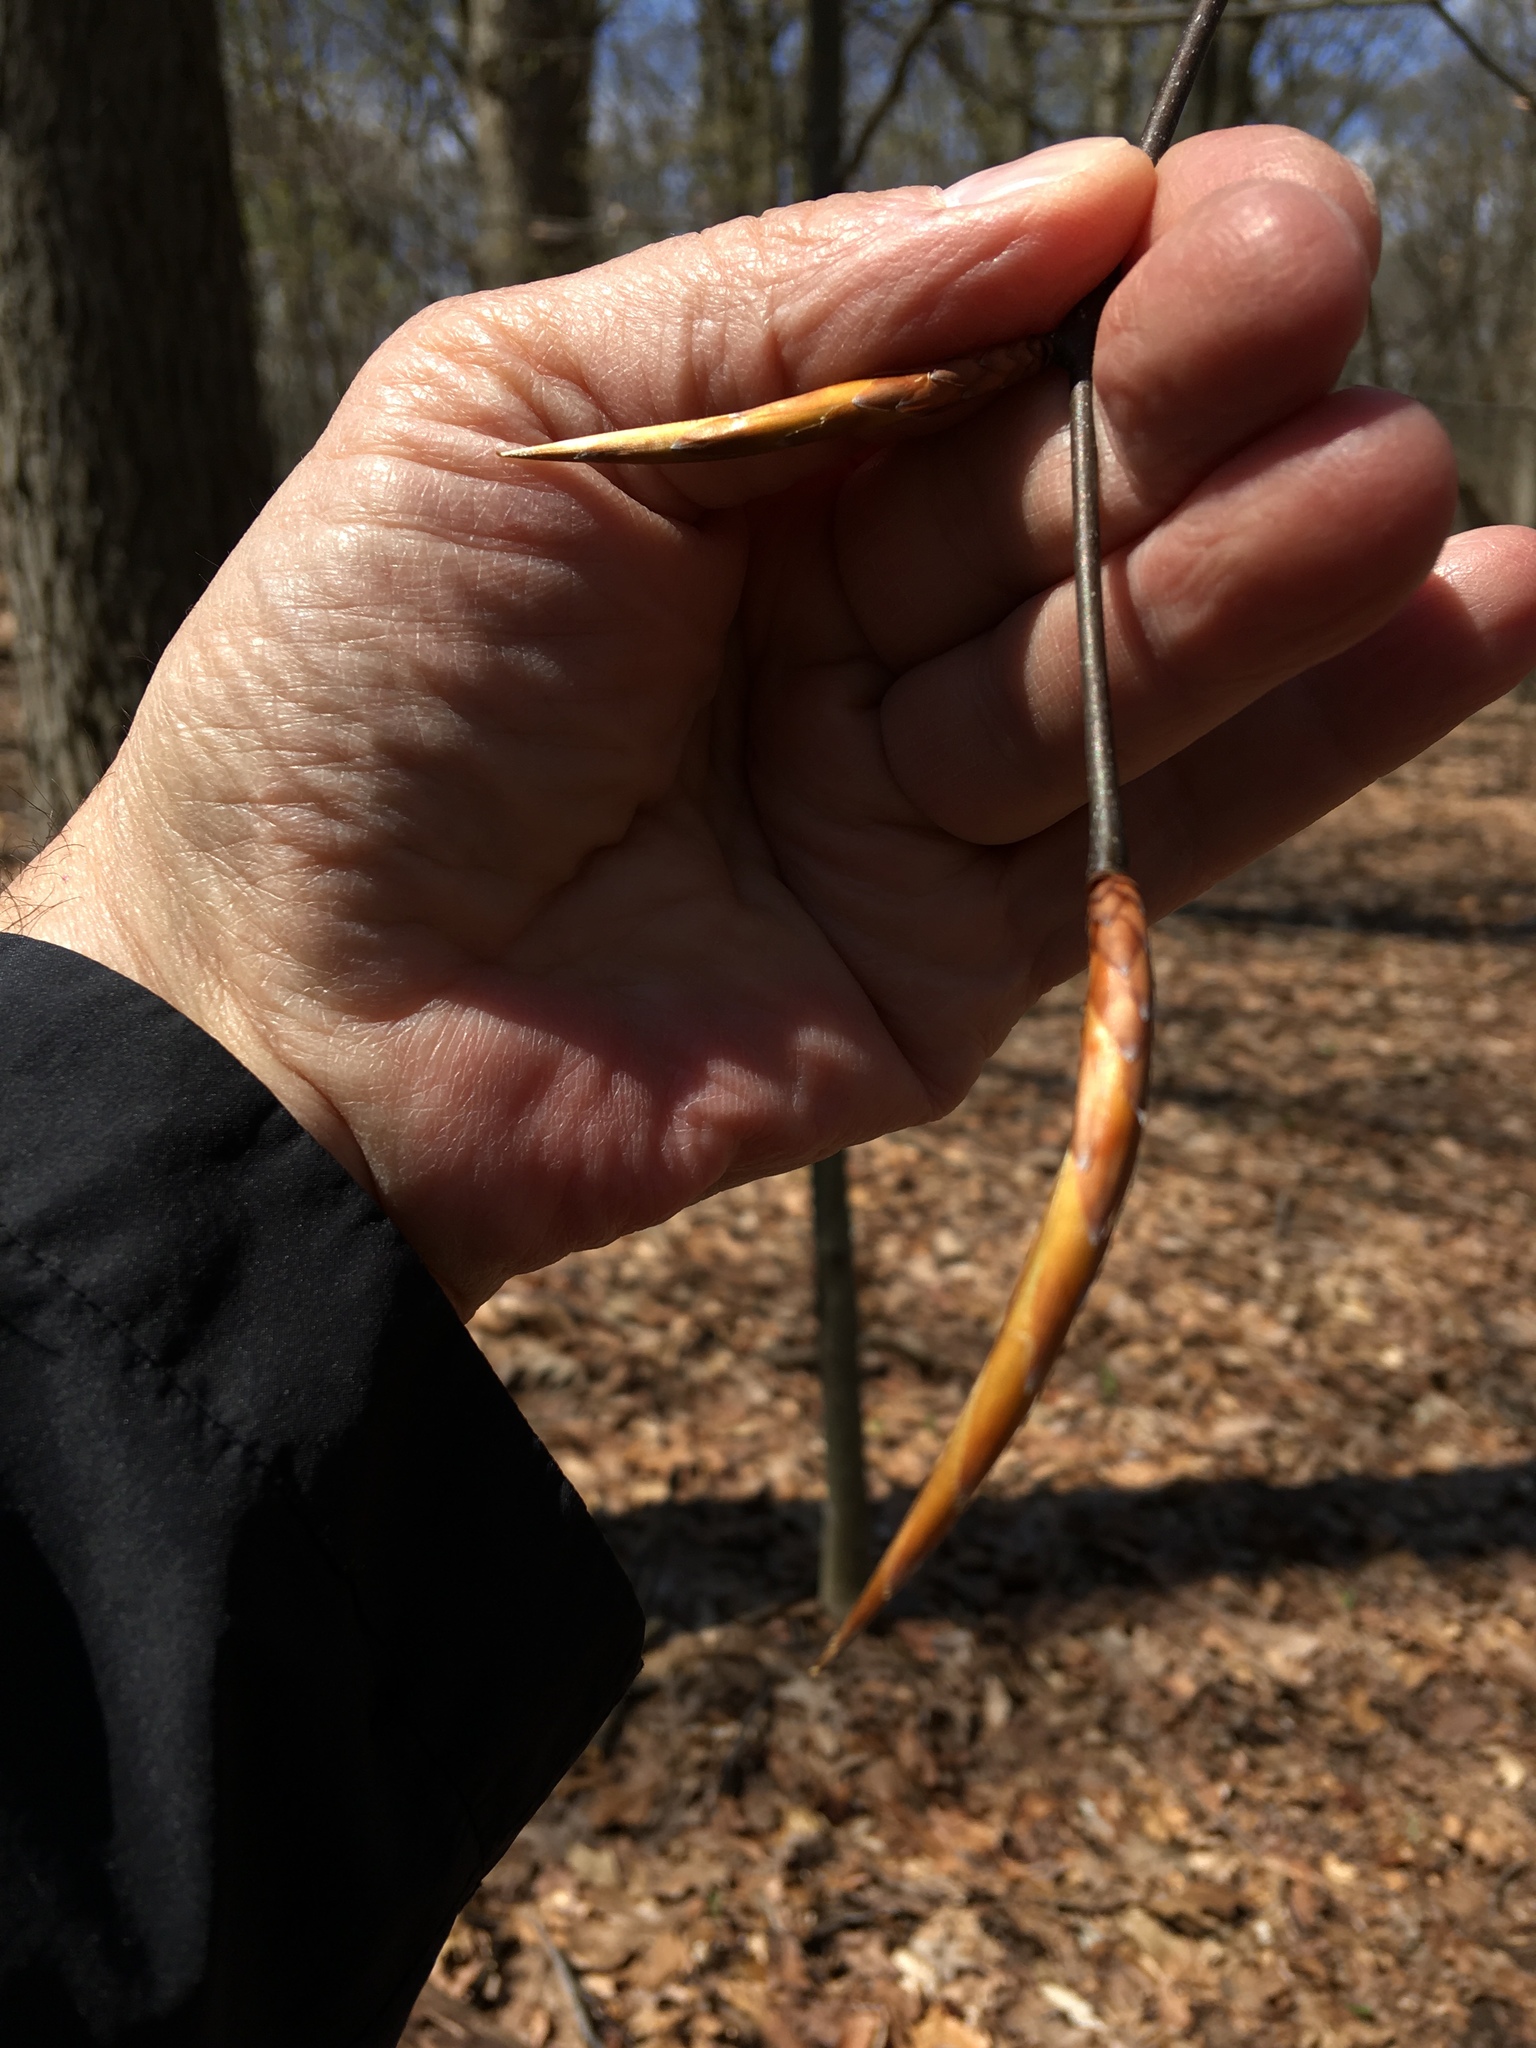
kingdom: Plantae
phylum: Tracheophyta
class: Magnoliopsida
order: Fagales
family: Fagaceae
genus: Fagus
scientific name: Fagus grandifolia
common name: American beech
